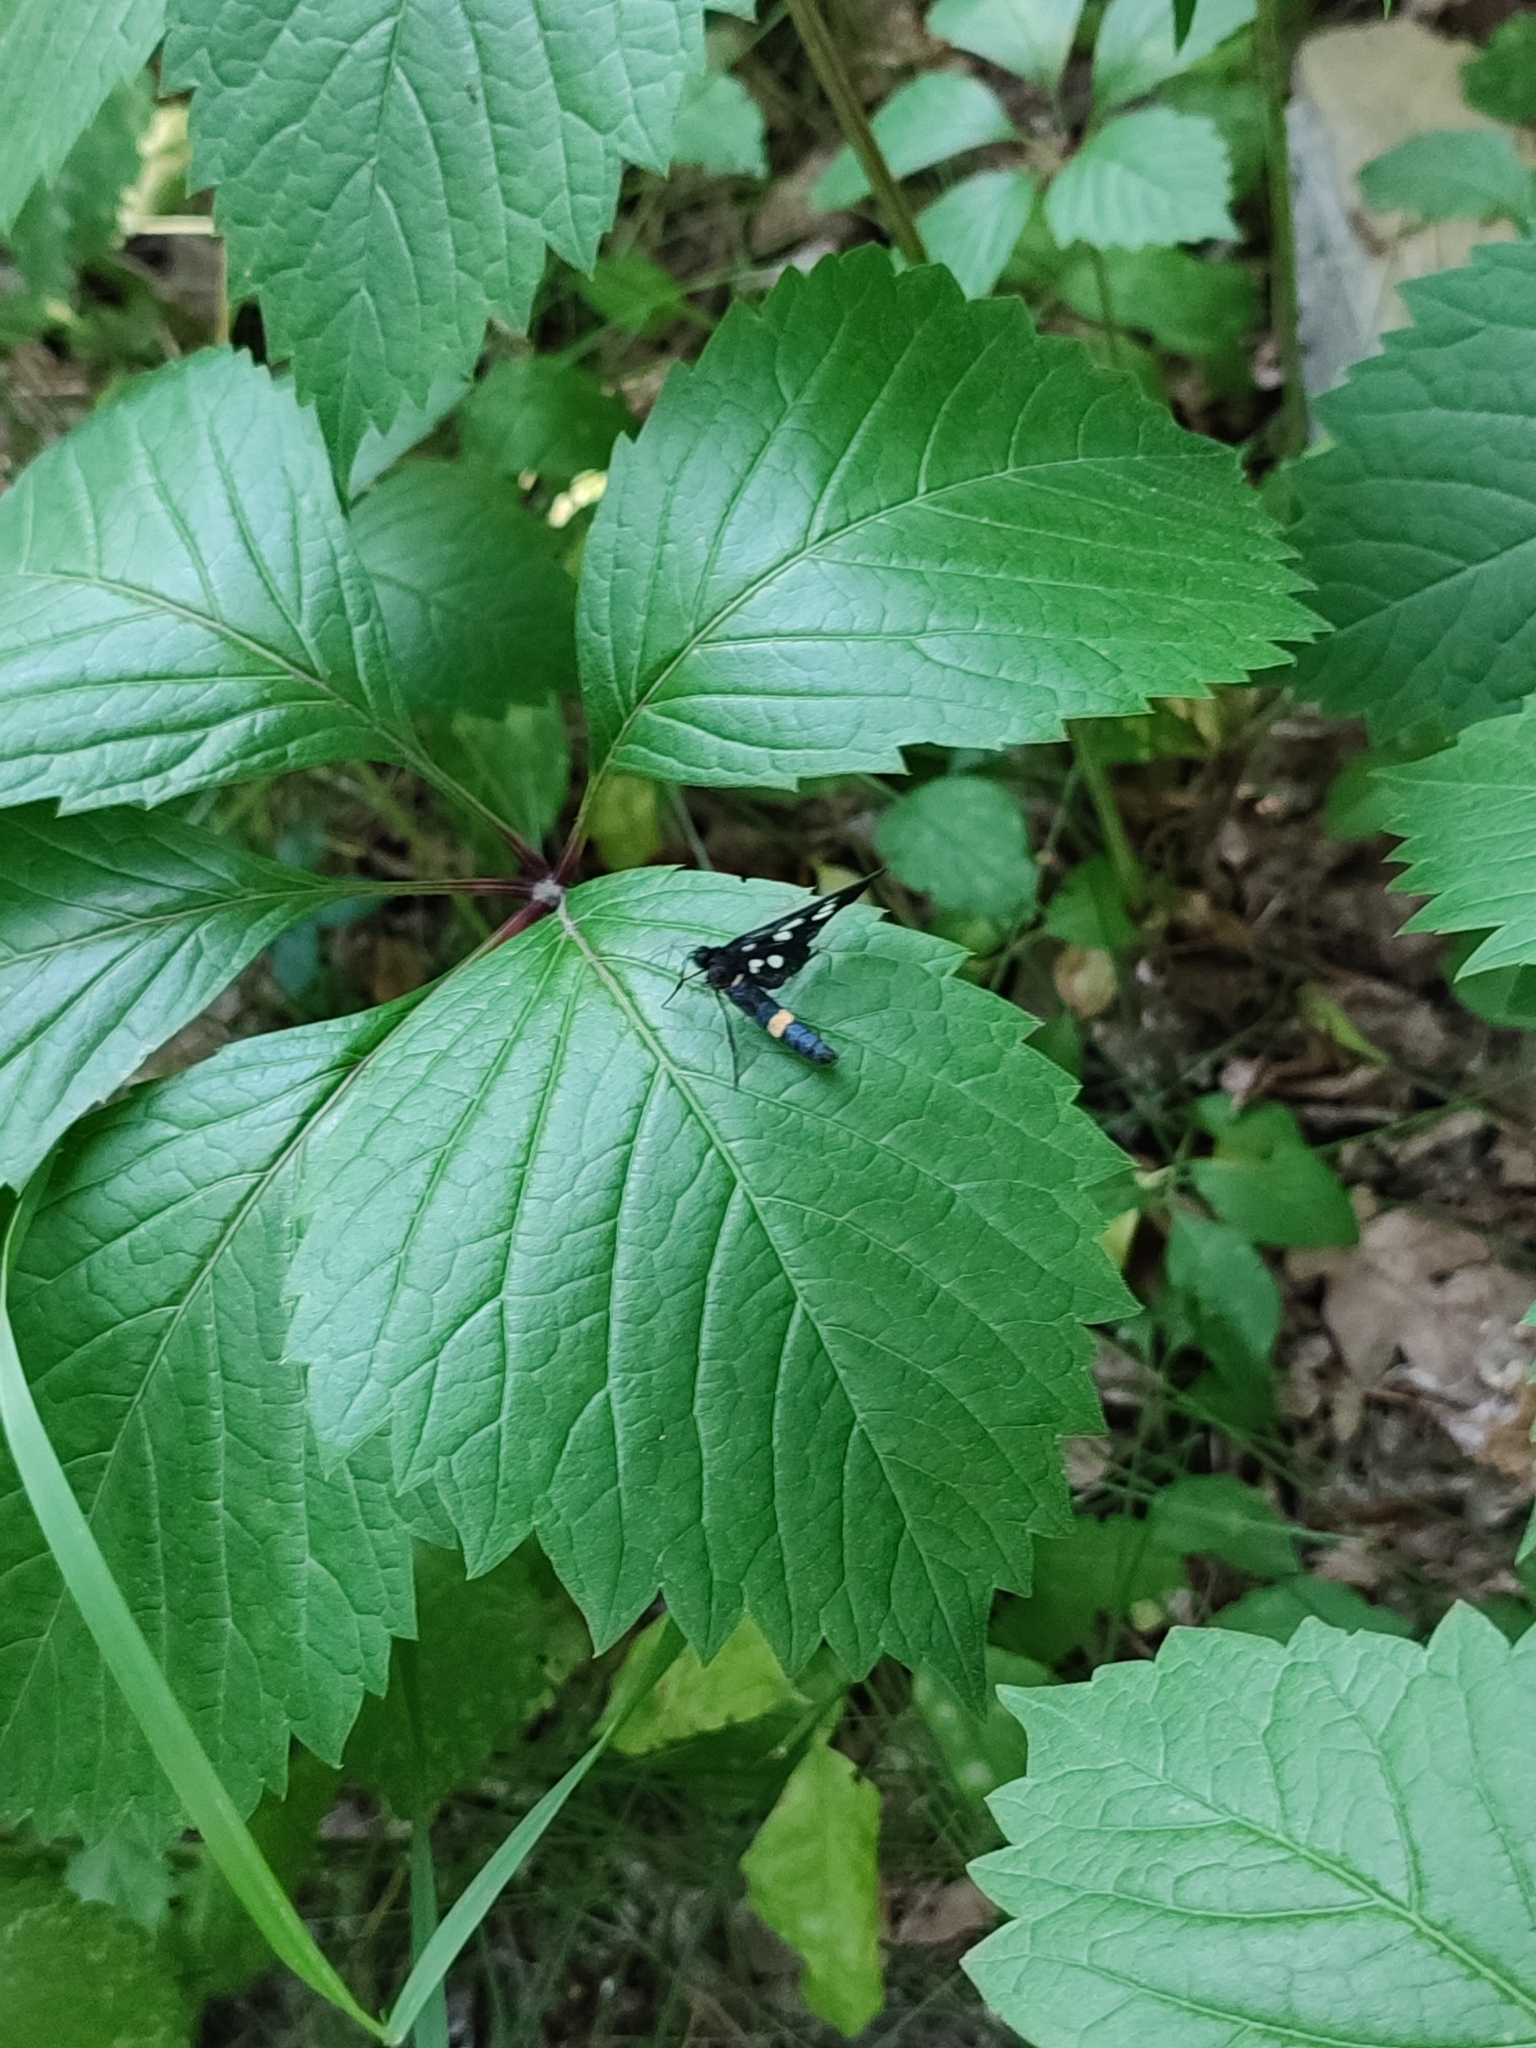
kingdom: Animalia
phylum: Arthropoda
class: Insecta
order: Lepidoptera
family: Erebidae
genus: Amata
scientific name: Amata phegea
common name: Nine-spotted
